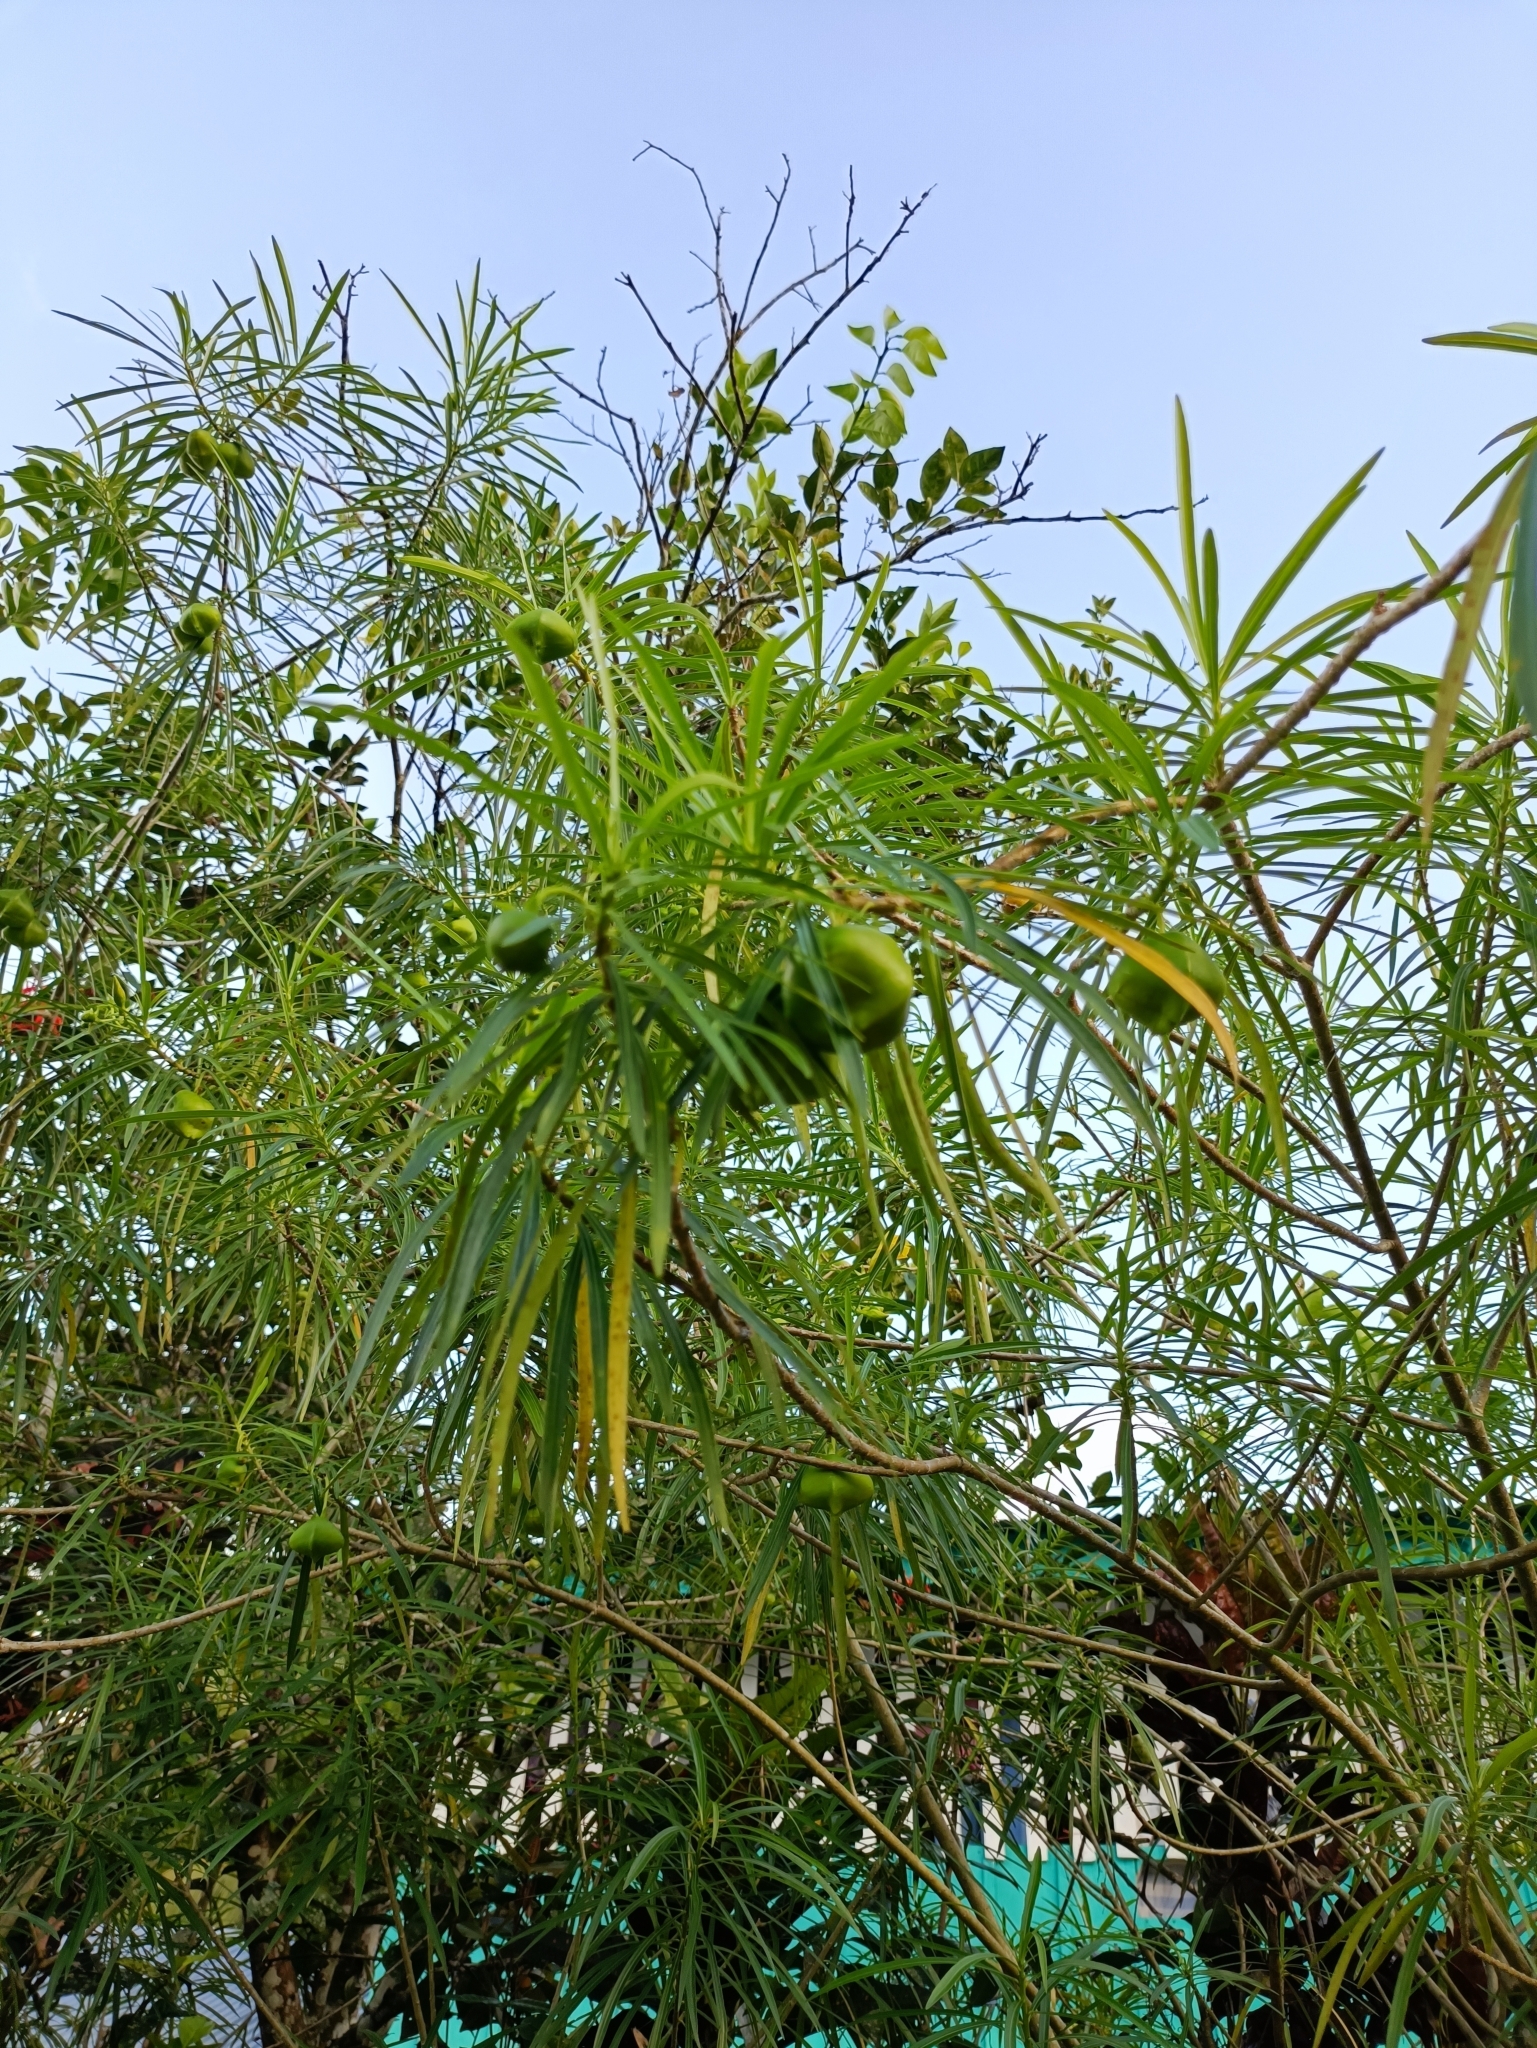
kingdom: Plantae
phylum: Tracheophyta
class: Magnoliopsida
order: Gentianales
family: Apocynaceae
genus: Cascabela
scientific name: Cascabela thevetia
